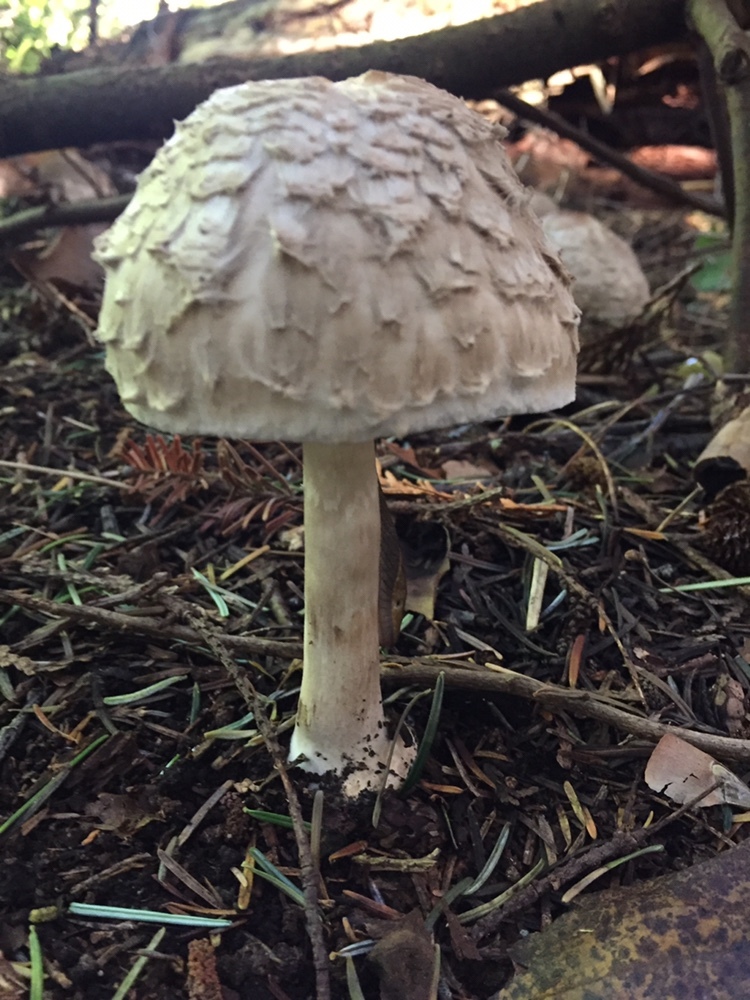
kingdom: Fungi
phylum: Basidiomycota
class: Agaricomycetes
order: Agaricales
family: Agaricaceae
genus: Chlorophyllum
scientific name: Chlorophyllum olivieri
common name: Conifer parasol
